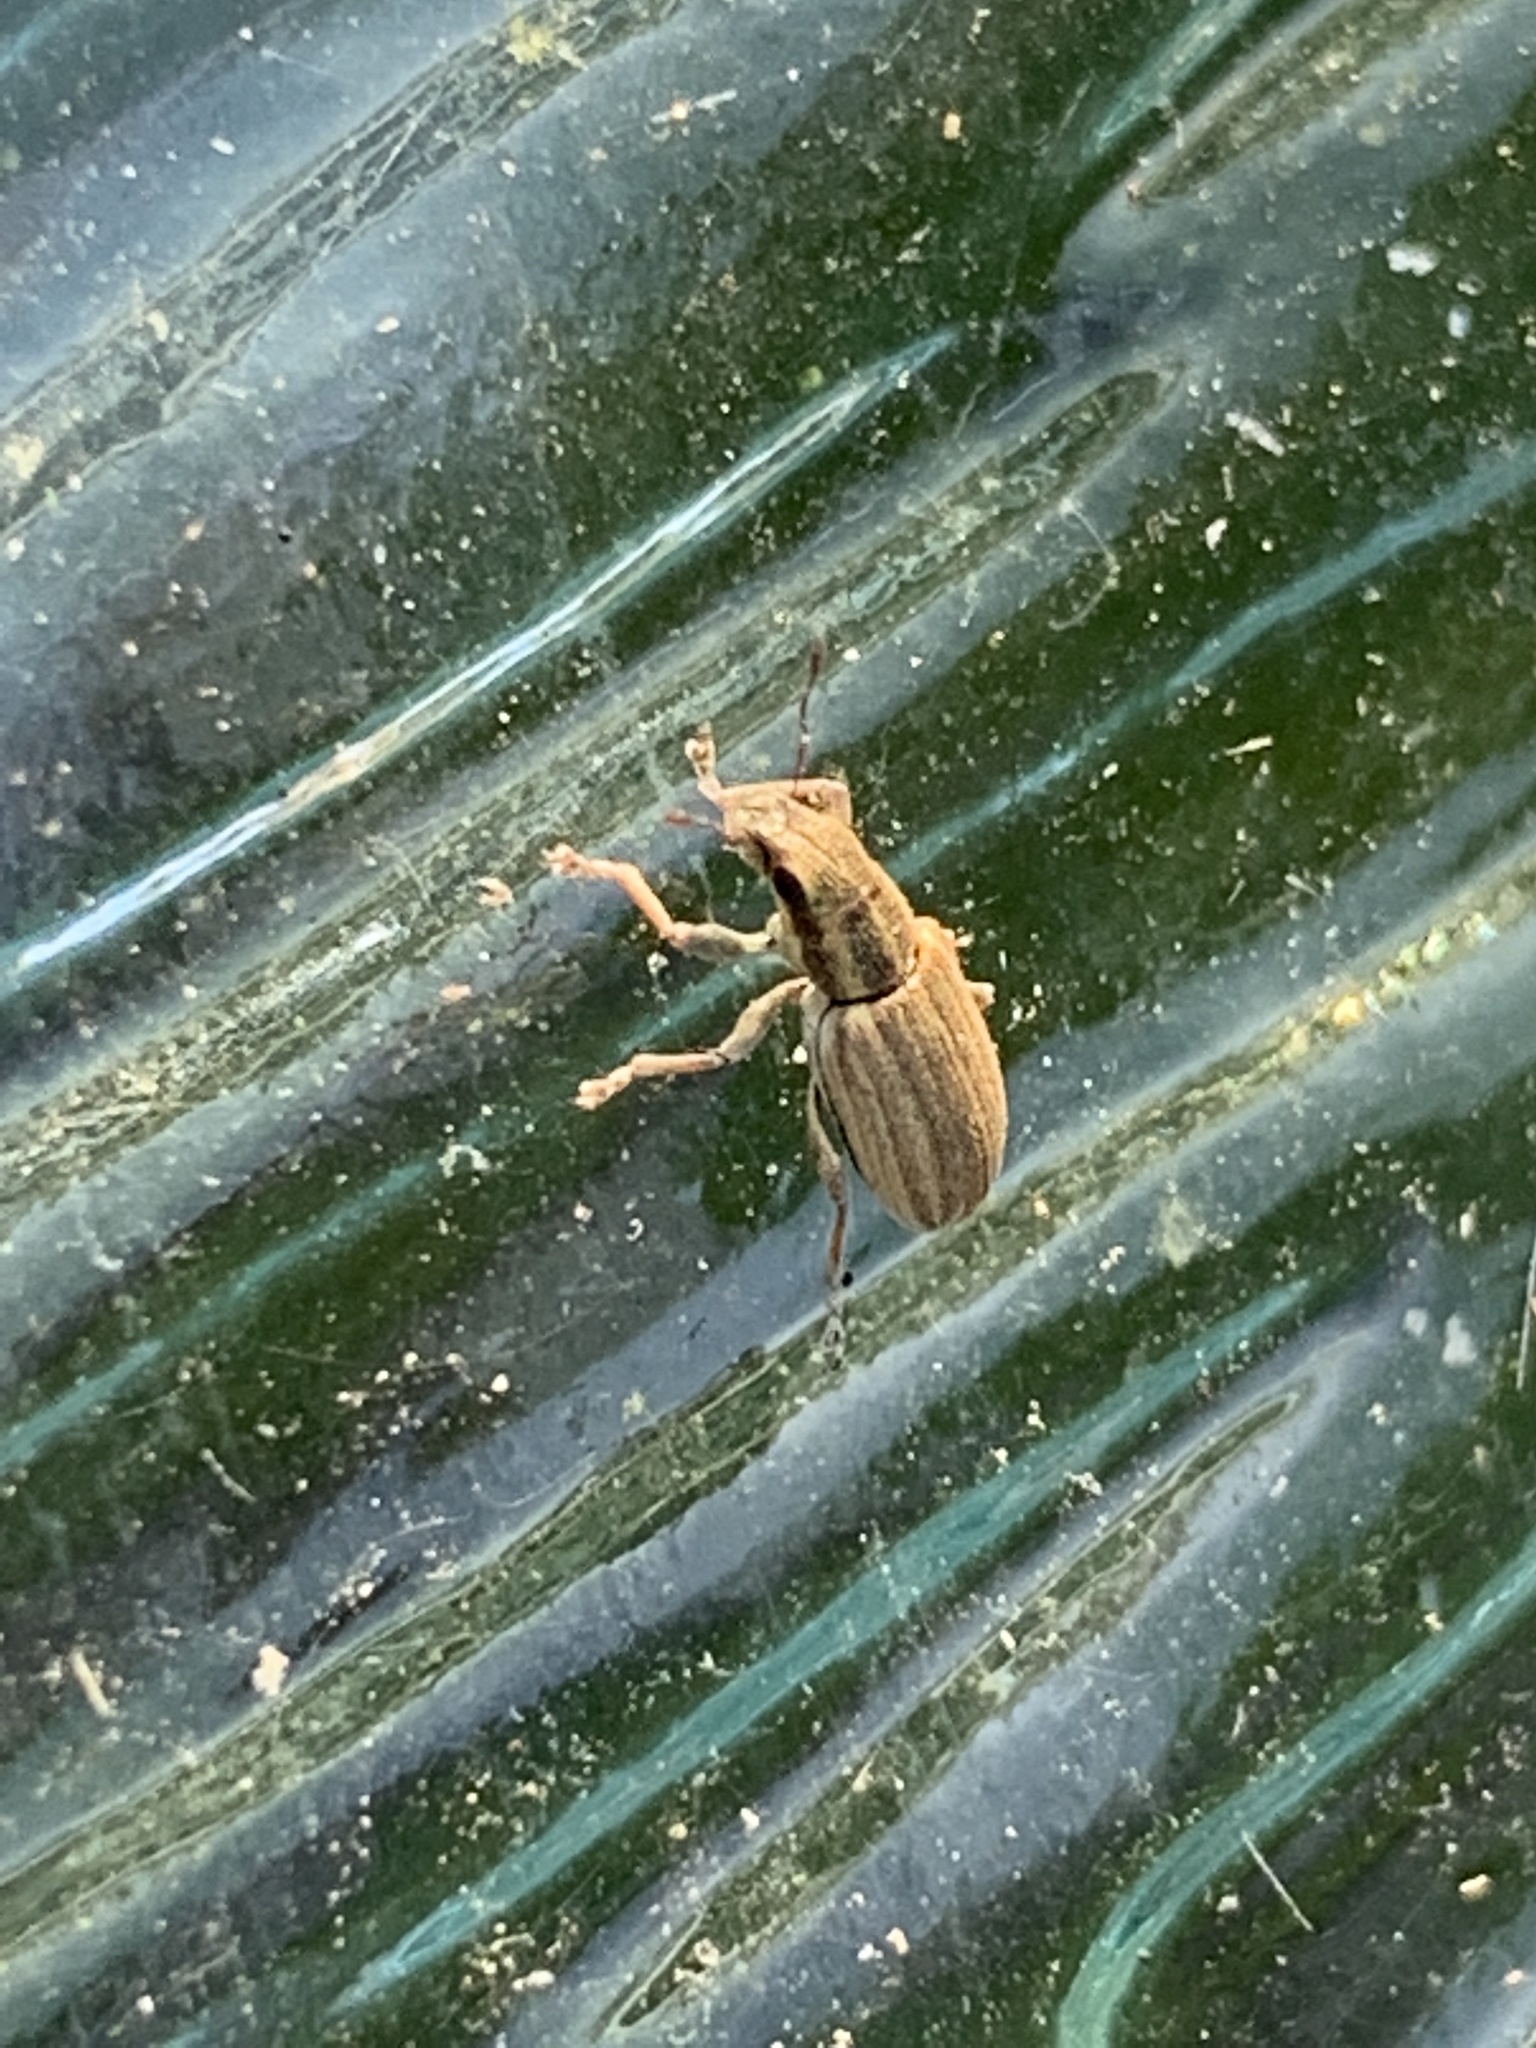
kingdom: Animalia
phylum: Arthropoda
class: Insecta
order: Coleoptera
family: Curculionidae
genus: Sitona
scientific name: Sitona lineatus
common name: Weevil
